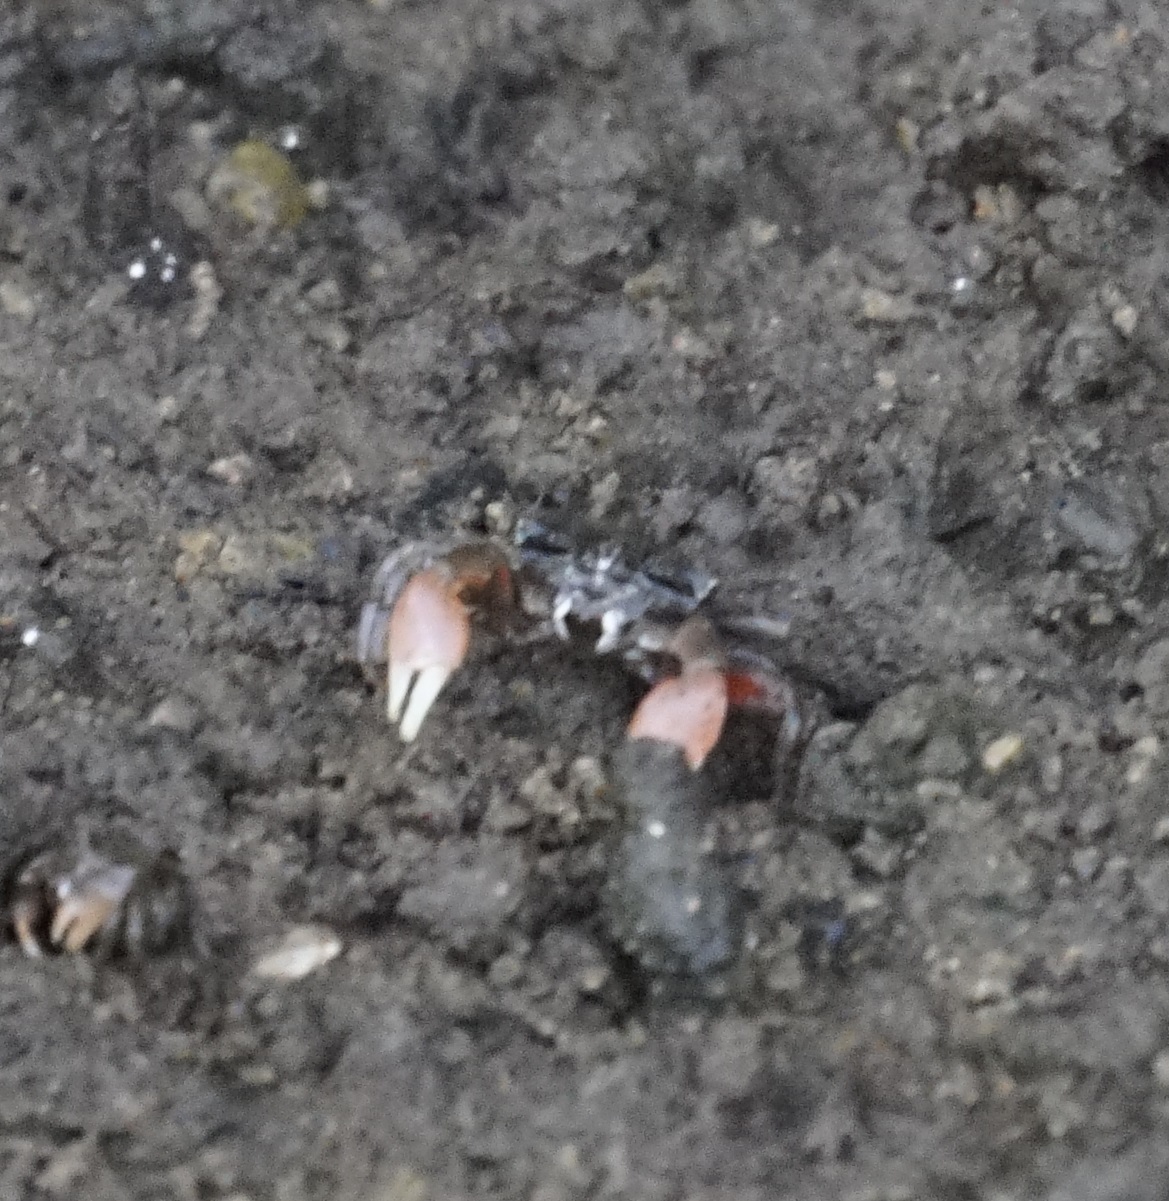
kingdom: Animalia
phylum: Arthropoda
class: Malacostraca
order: Decapoda
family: Heloeciidae
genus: Heloecius
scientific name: Heloecius cordiformis
